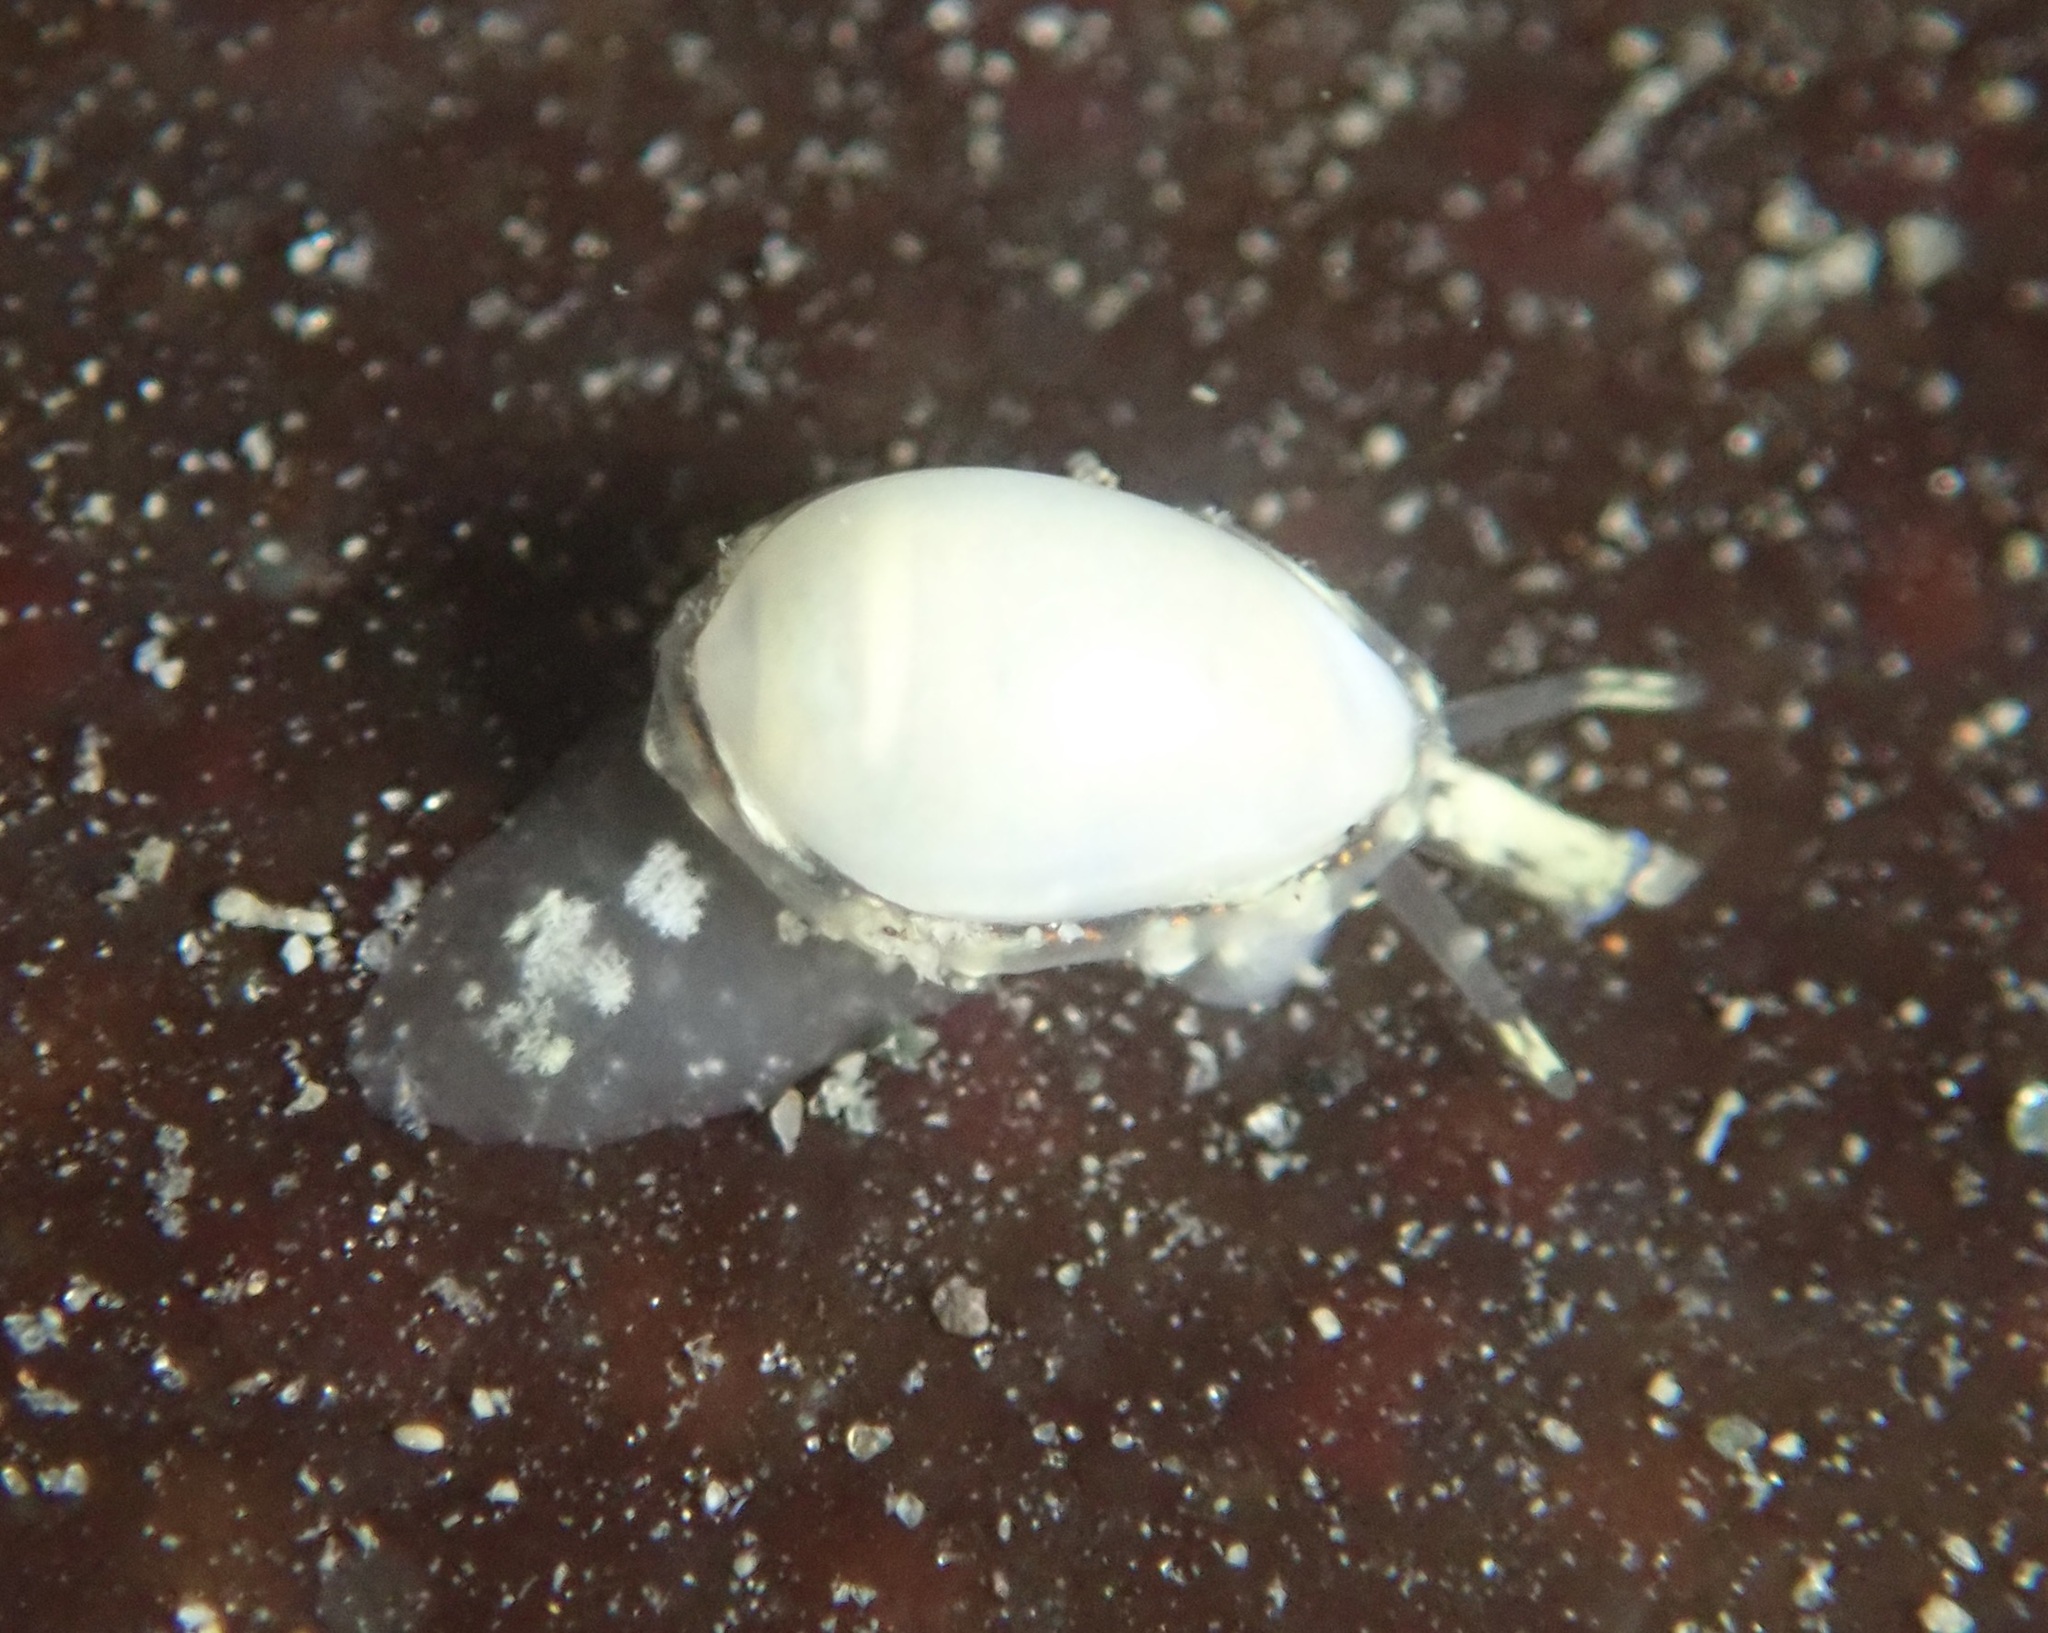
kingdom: Animalia
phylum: Mollusca
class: Gastropoda
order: Neogastropoda
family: Granulinidae
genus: Granulina
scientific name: Granulina margaritula
